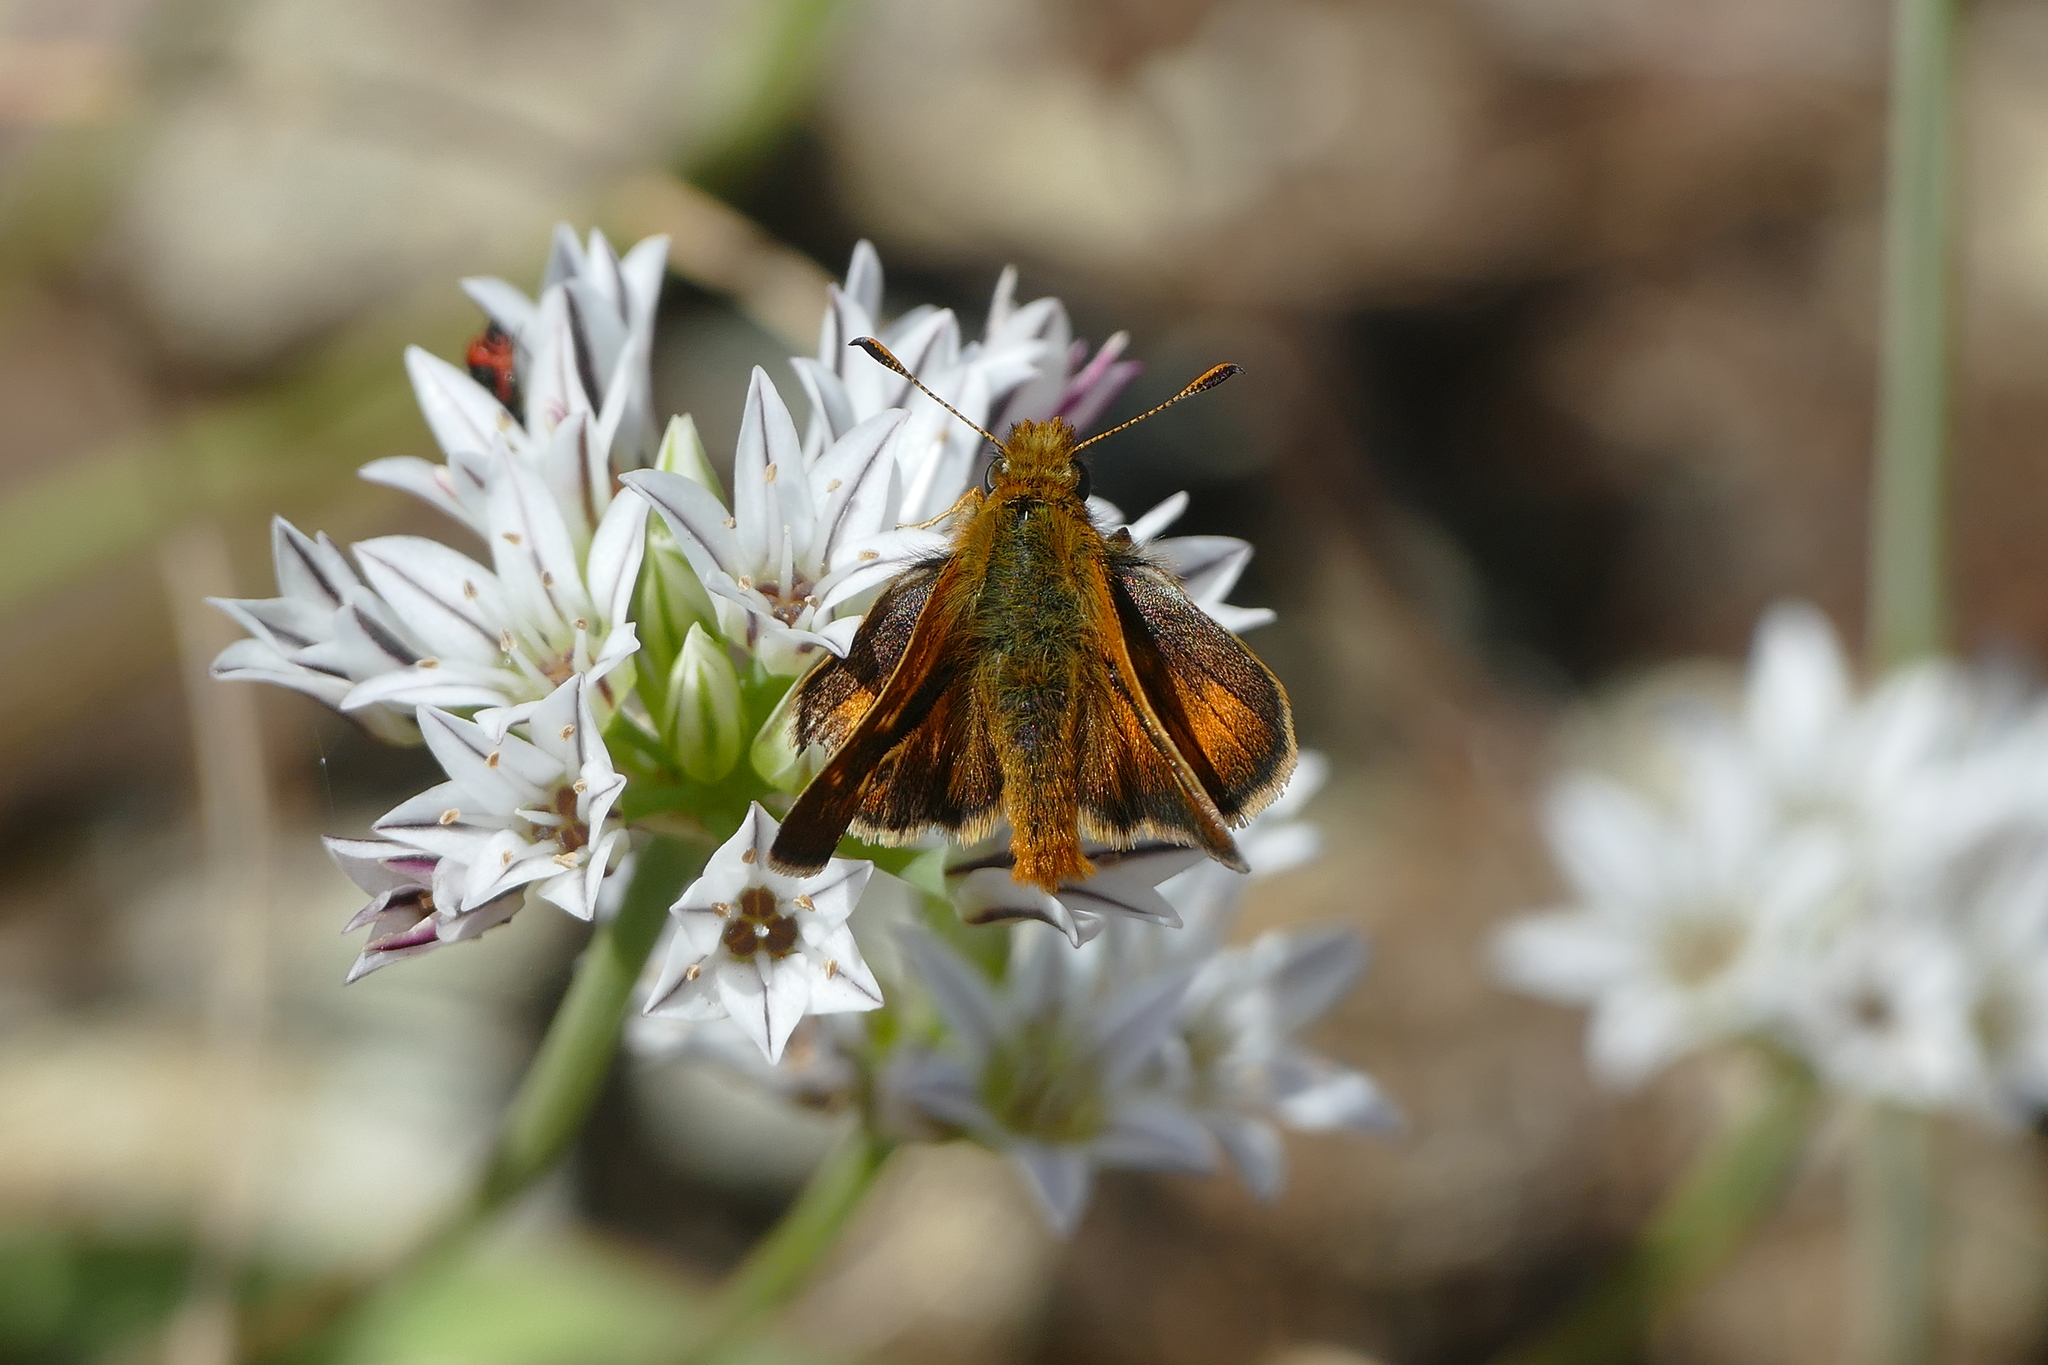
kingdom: Animalia
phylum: Arthropoda
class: Insecta
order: Lepidoptera
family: Hesperiidae
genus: Ochlodes
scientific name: Ochlodes agricola
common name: Rural skipper
